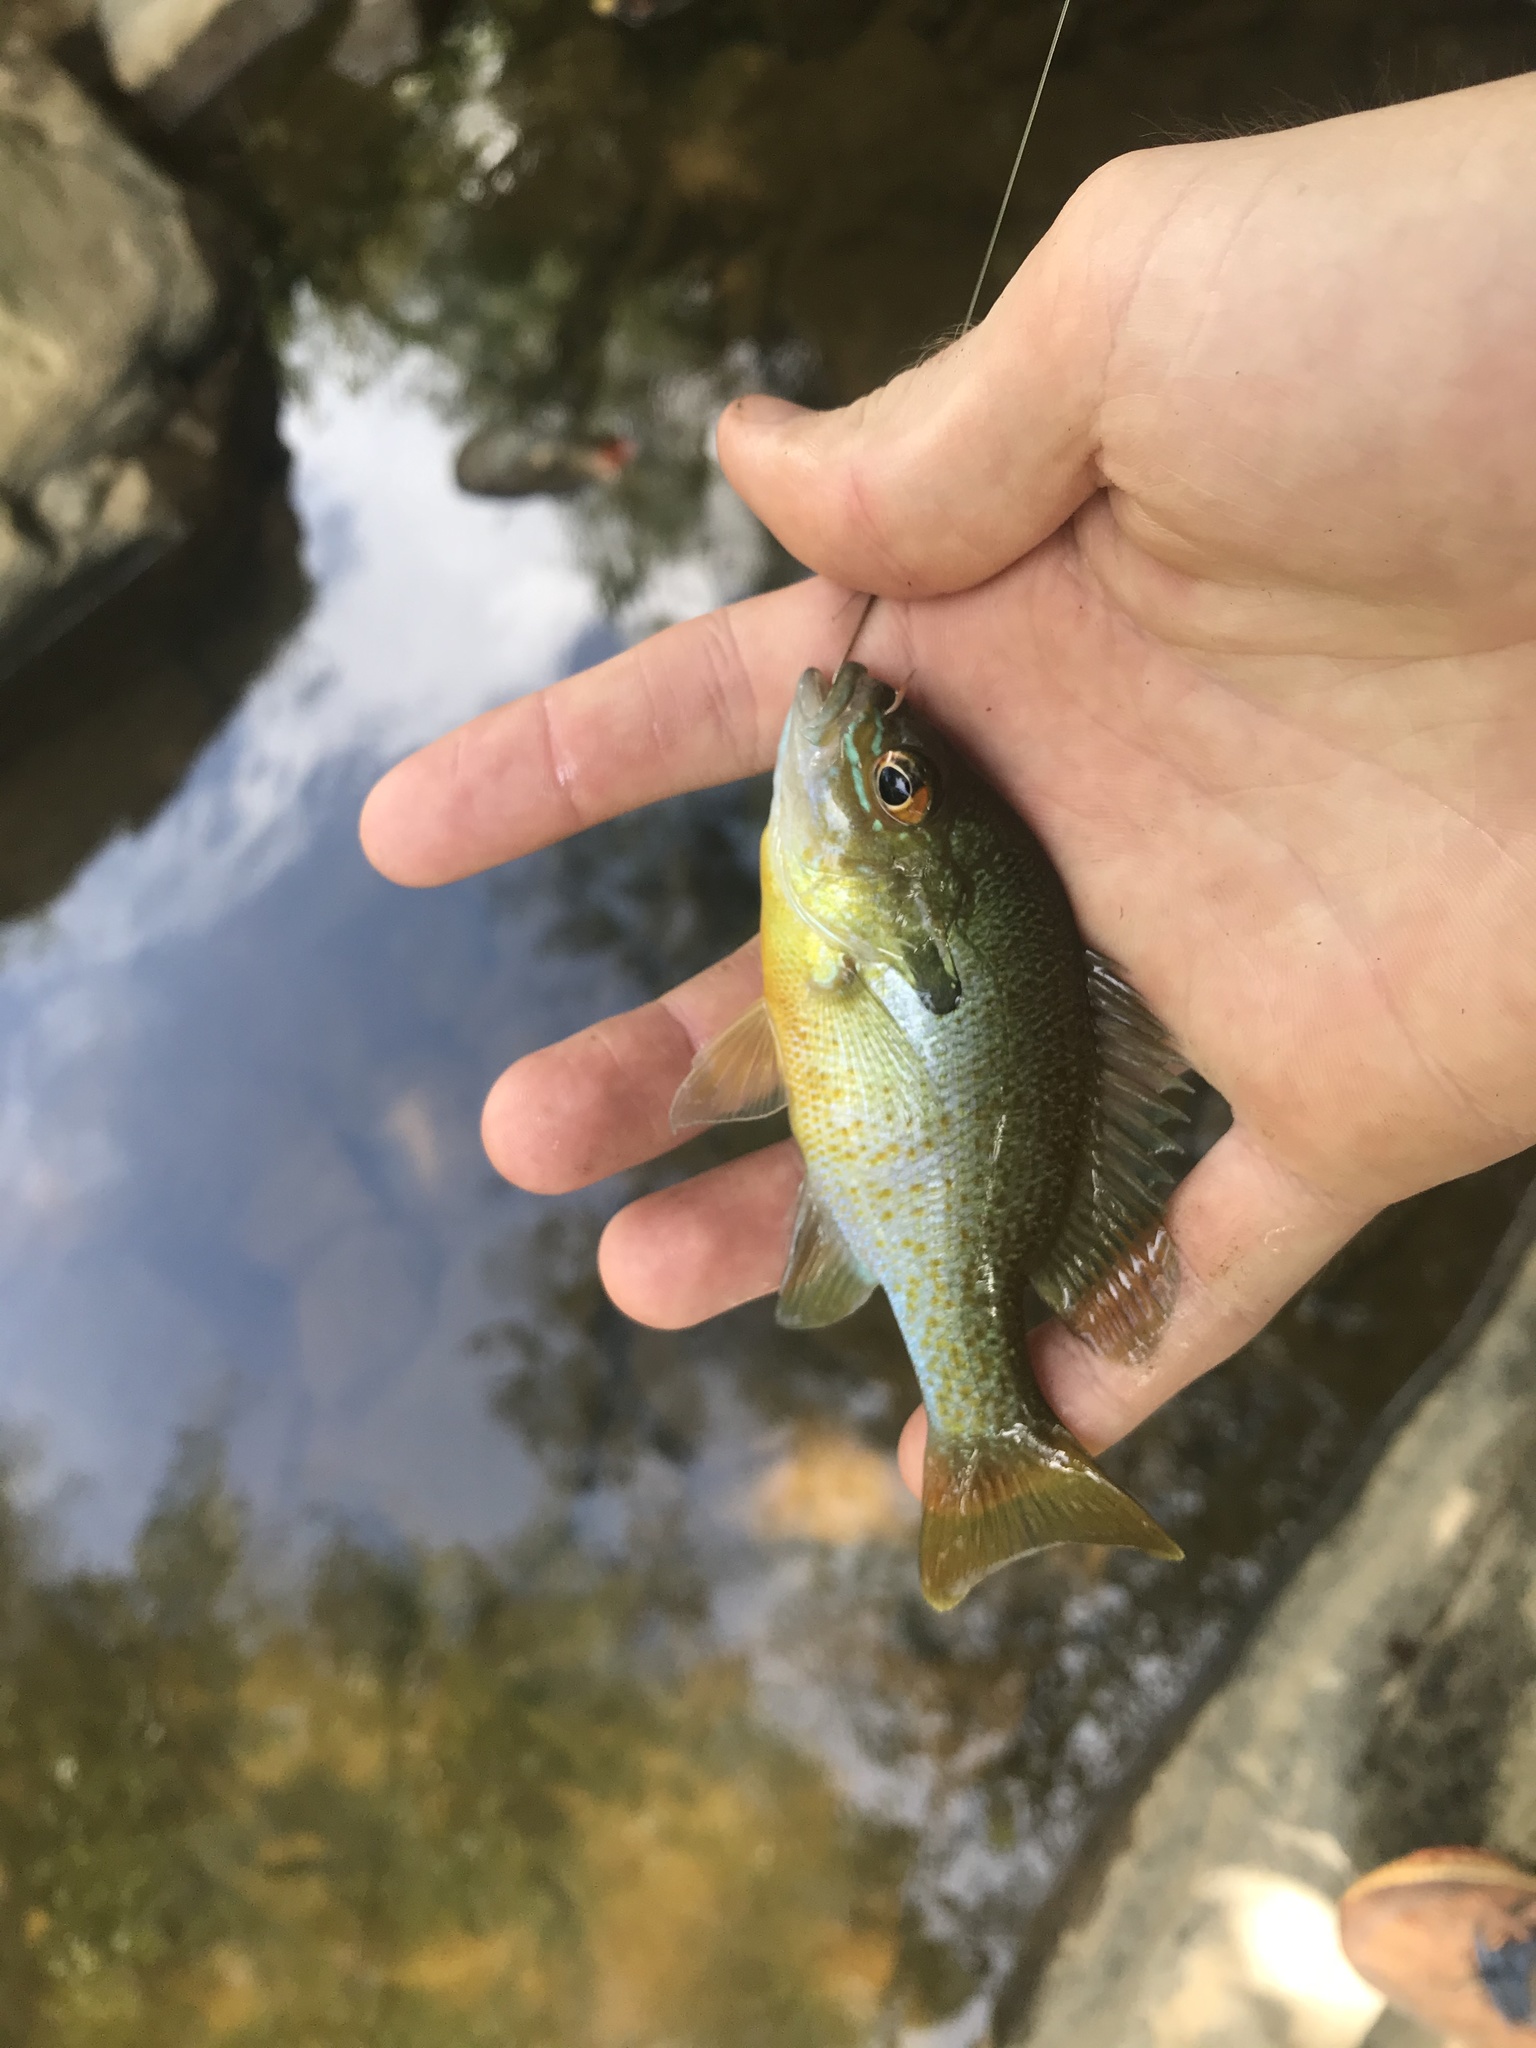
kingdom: Animalia
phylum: Chordata
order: Perciformes
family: Centrarchidae
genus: Lepomis
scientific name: Lepomis auritus
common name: Redbreast sunfish
